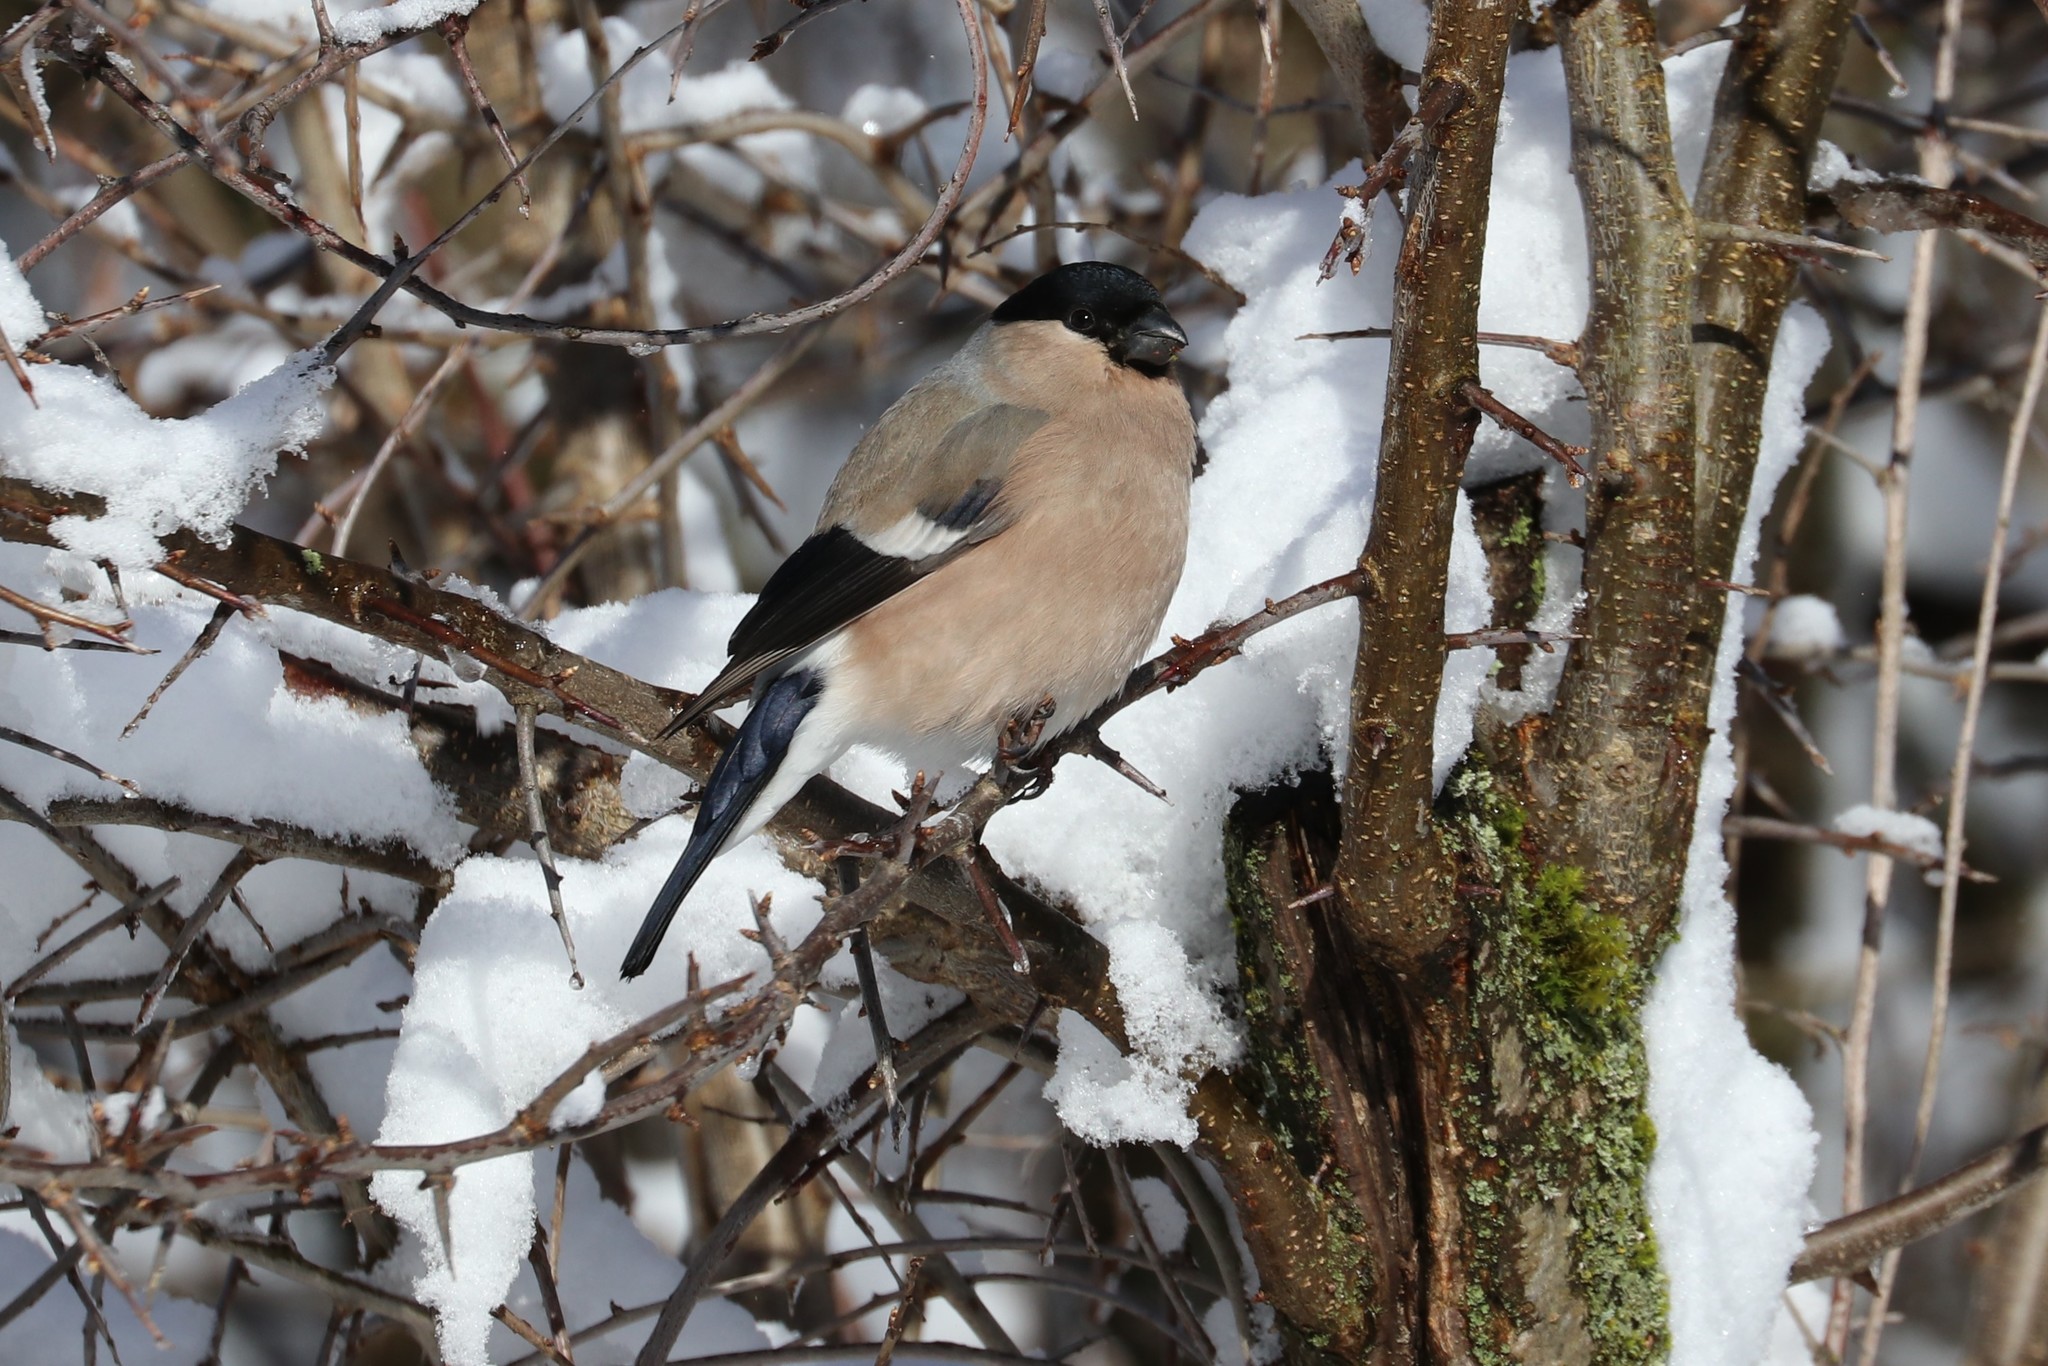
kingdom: Animalia
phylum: Chordata
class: Aves
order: Passeriformes
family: Fringillidae
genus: Pyrrhula
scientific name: Pyrrhula pyrrhula
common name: Eurasian bullfinch
